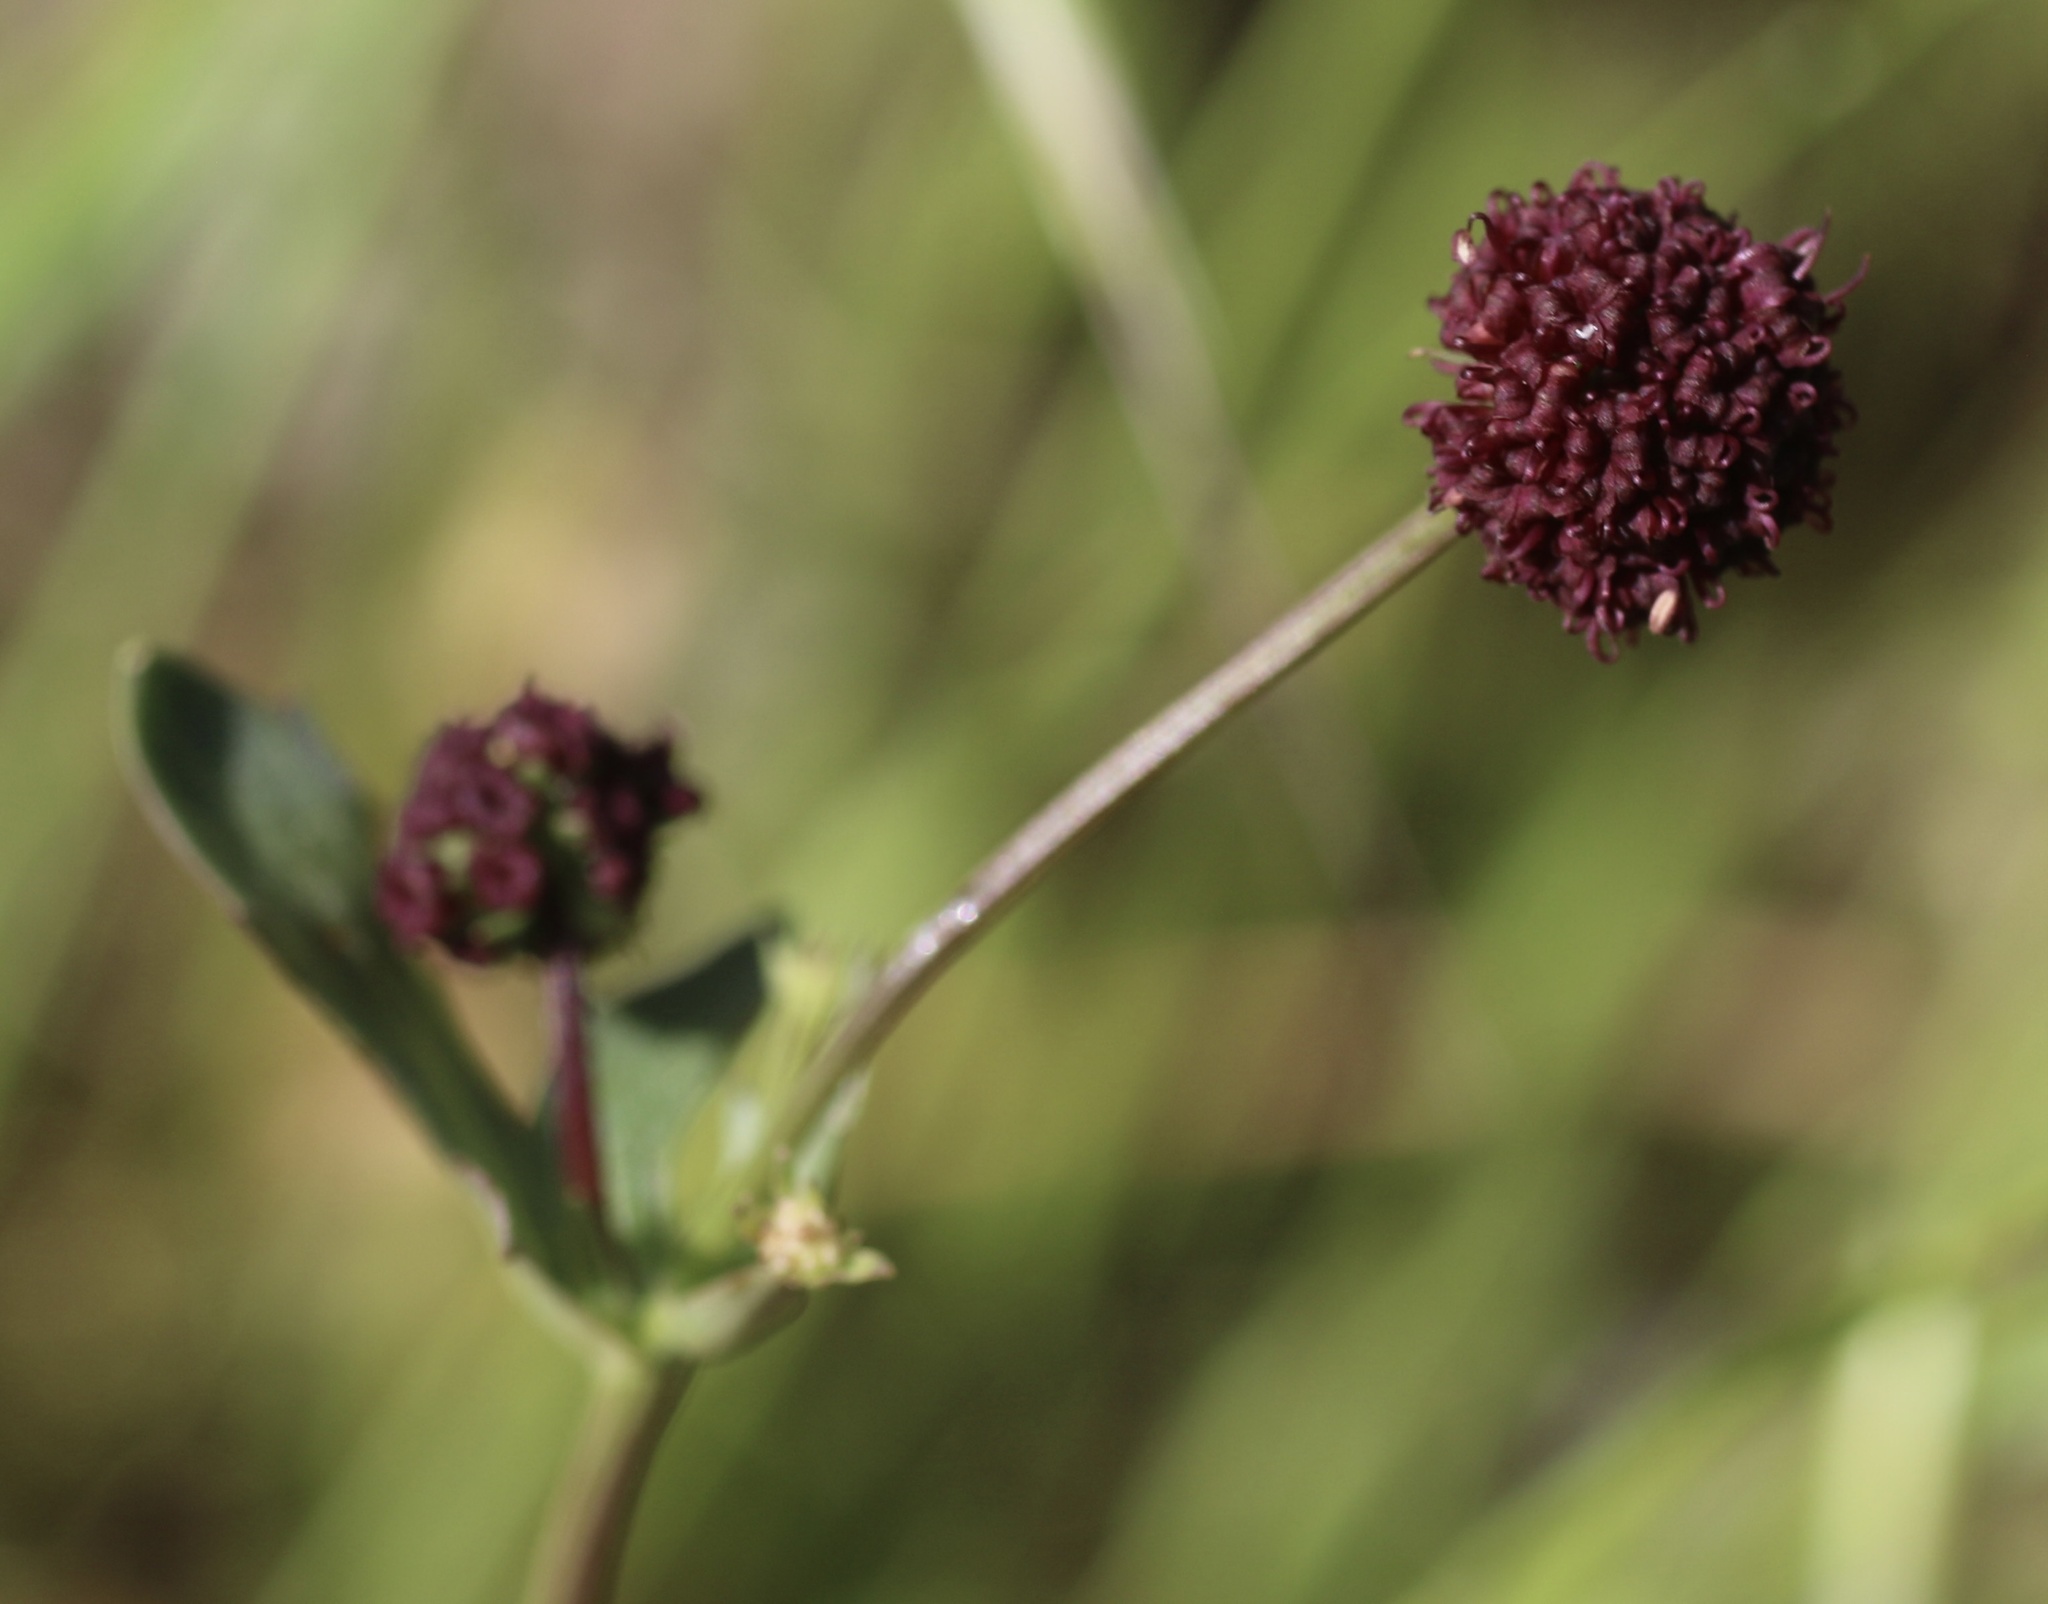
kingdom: Plantae
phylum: Tracheophyta
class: Magnoliopsida
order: Apiales
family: Apiaceae
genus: Sanicula
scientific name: Sanicula bipinnatifida
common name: Shoe-buttons
